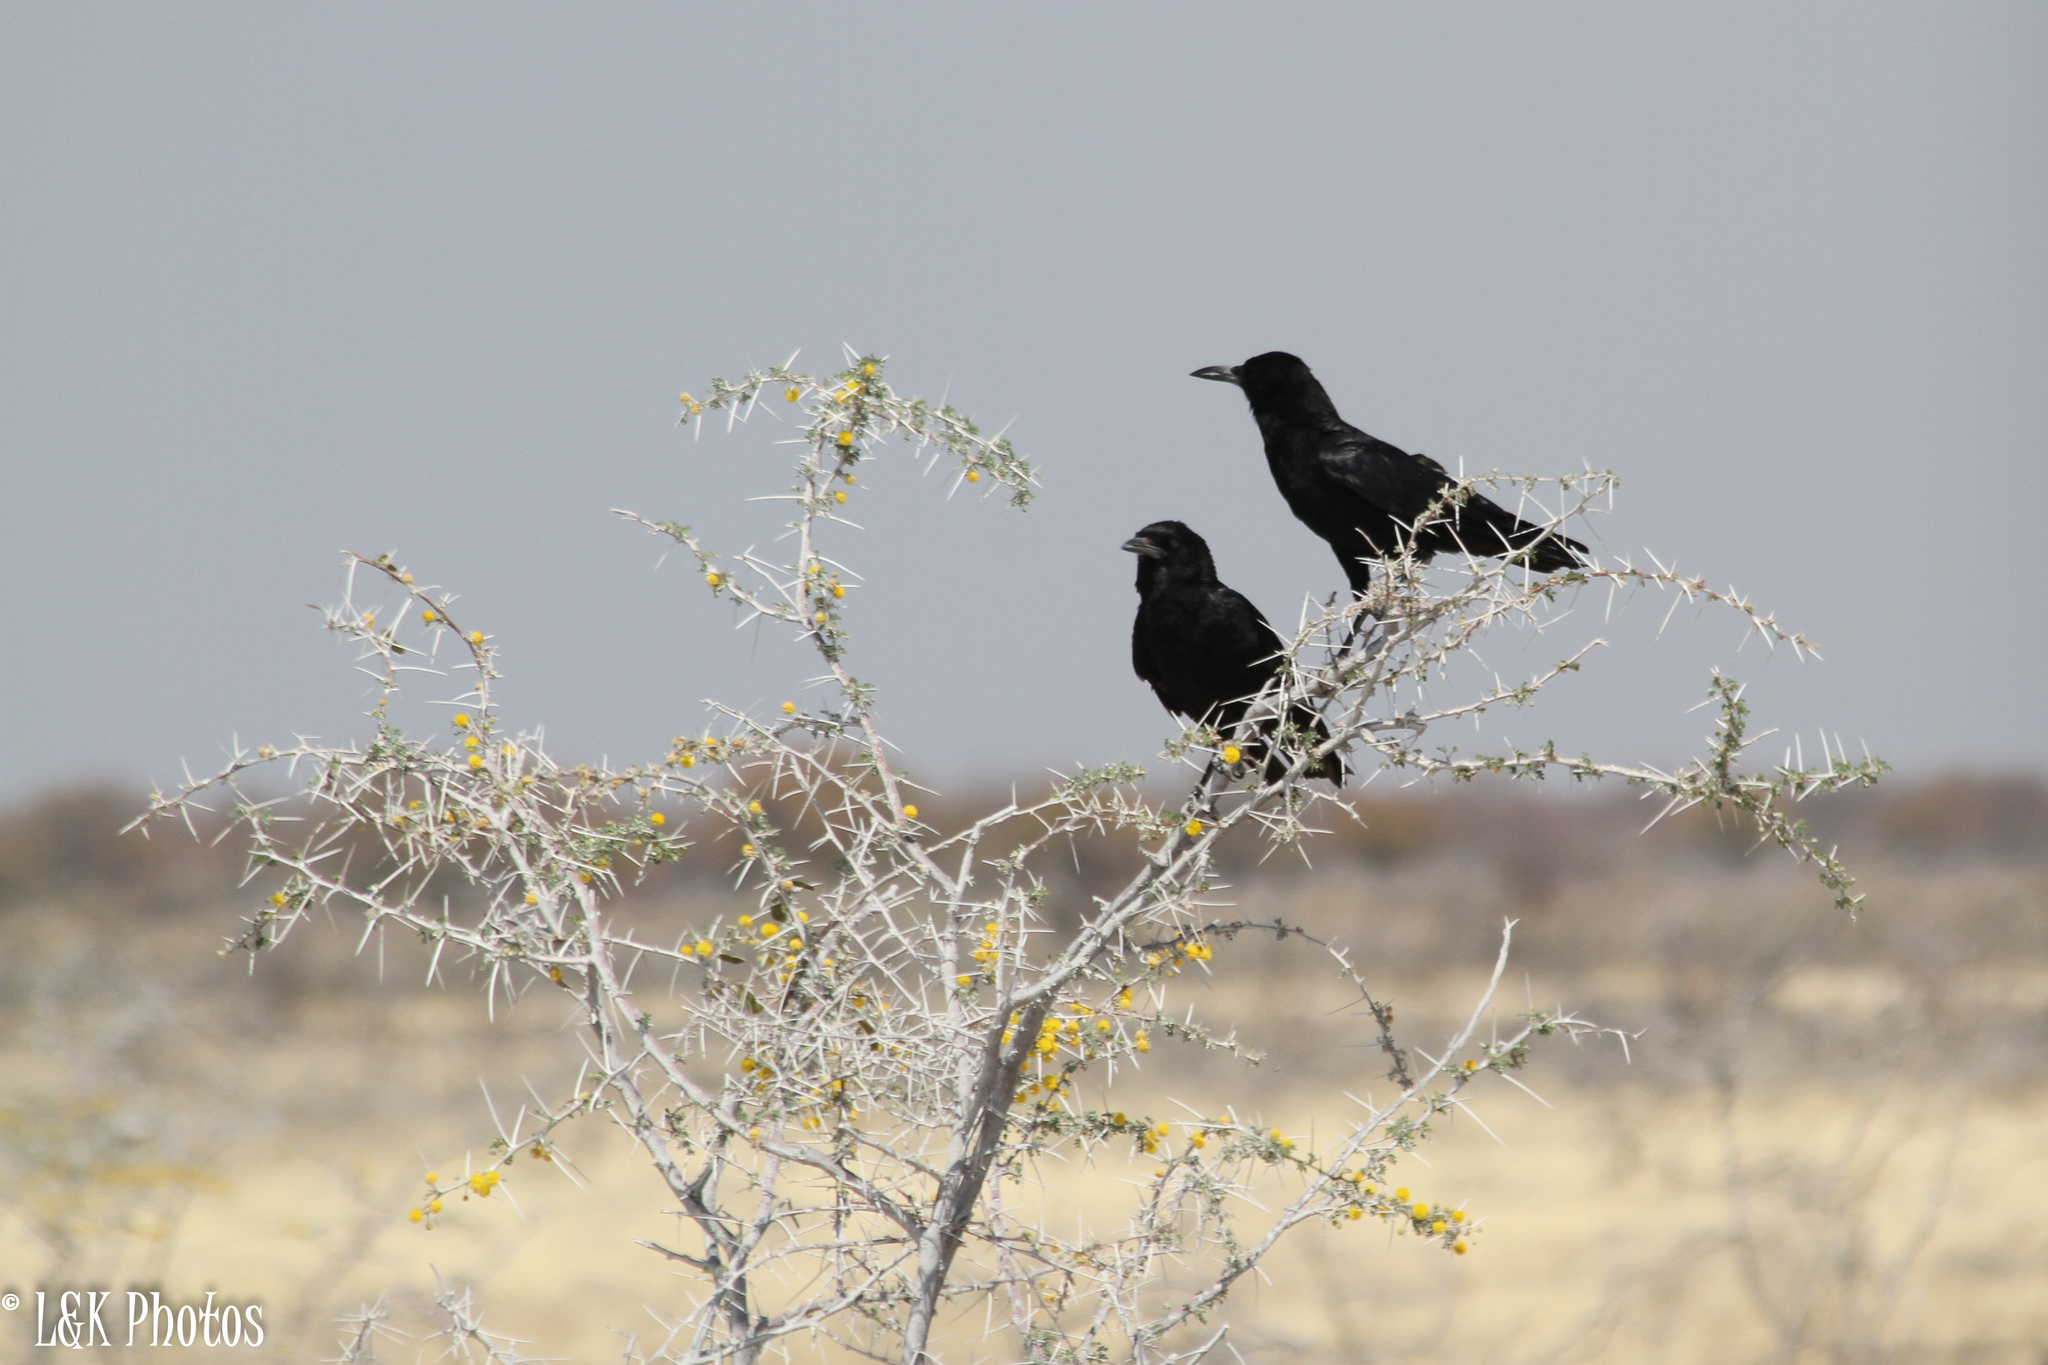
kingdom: Animalia
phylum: Chordata
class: Aves
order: Passeriformes
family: Corvidae
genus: Corvus
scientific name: Corvus capensis
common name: Cape crow
